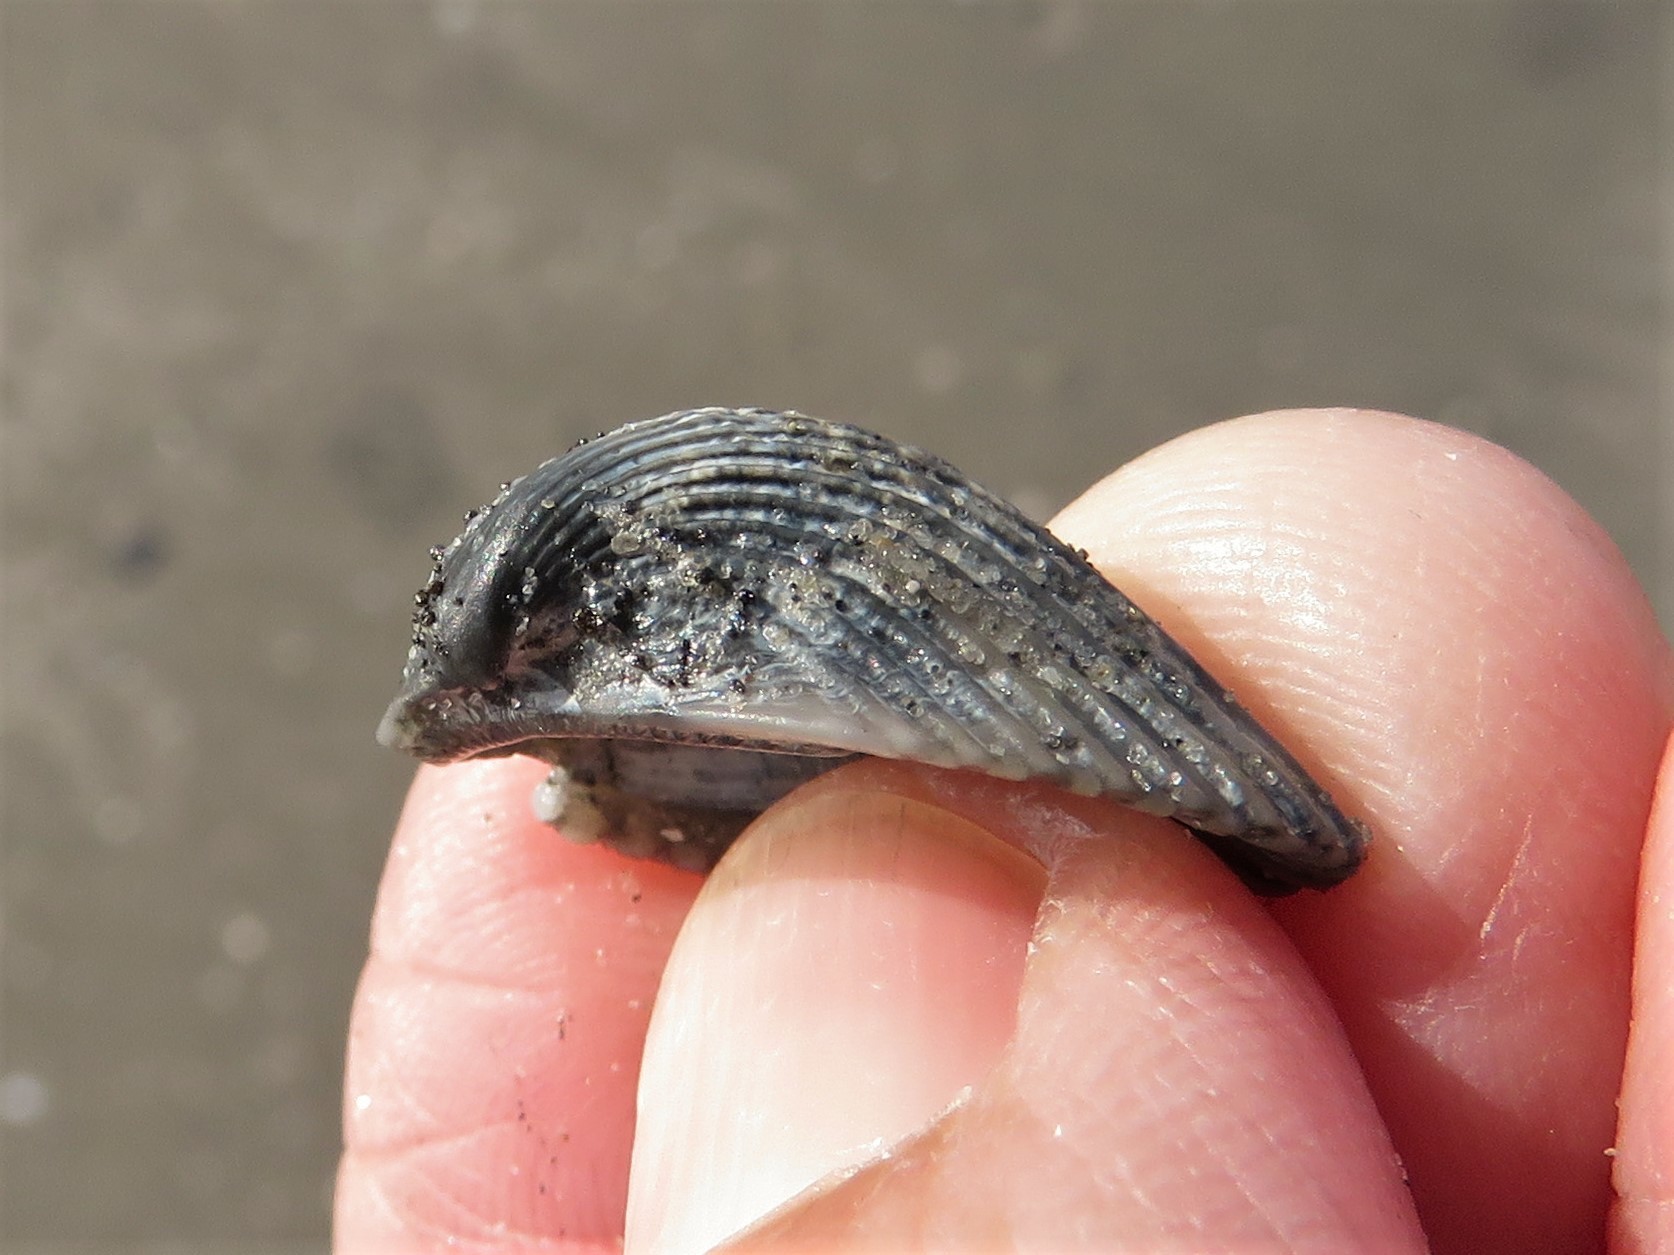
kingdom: Animalia
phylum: Mollusca
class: Bivalvia
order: Arcida
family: Noetiidae
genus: Noetia
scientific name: Noetia ponderosa
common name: Ponderous ark
